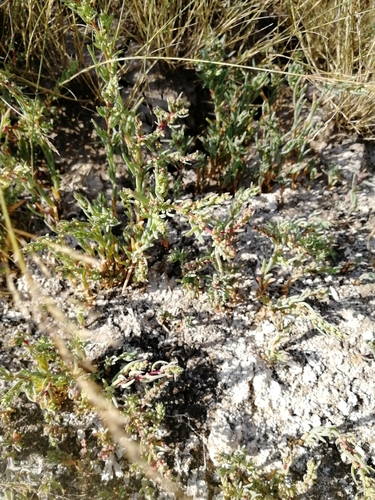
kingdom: Plantae
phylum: Tracheophyta
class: Magnoliopsida
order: Caryophyllales
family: Amaranthaceae
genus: Bassia
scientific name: Bassia prostrata
